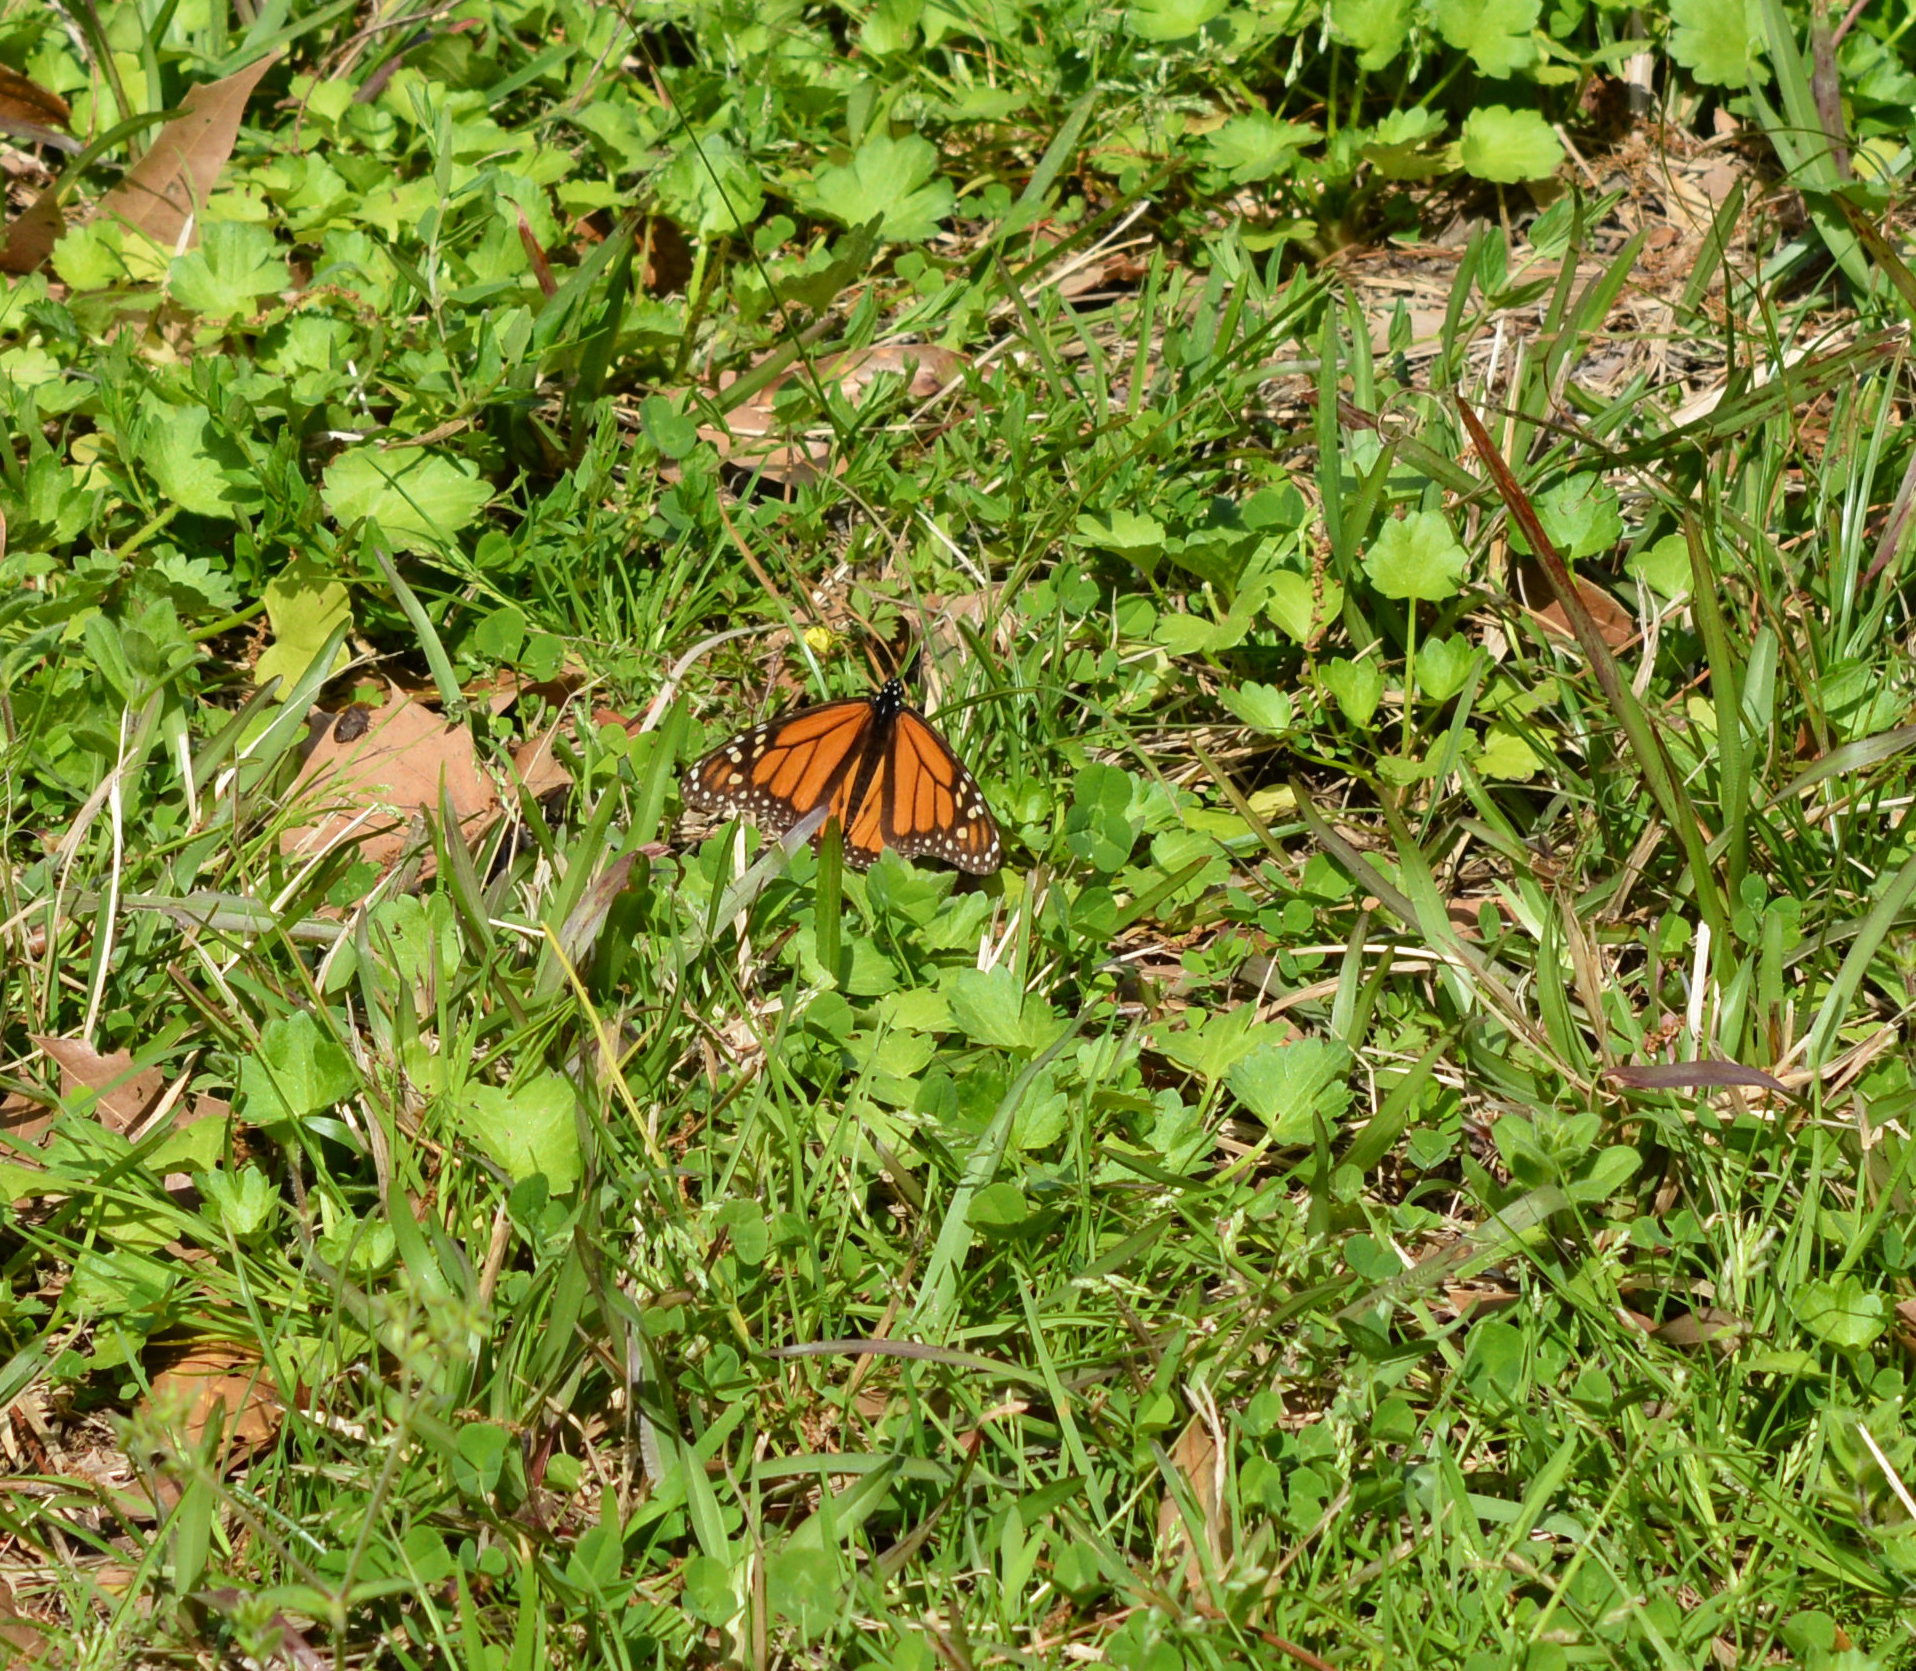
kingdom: Animalia
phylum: Arthropoda
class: Insecta
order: Lepidoptera
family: Nymphalidae
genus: Danaus
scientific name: Danaus plexippus
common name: Monarch
